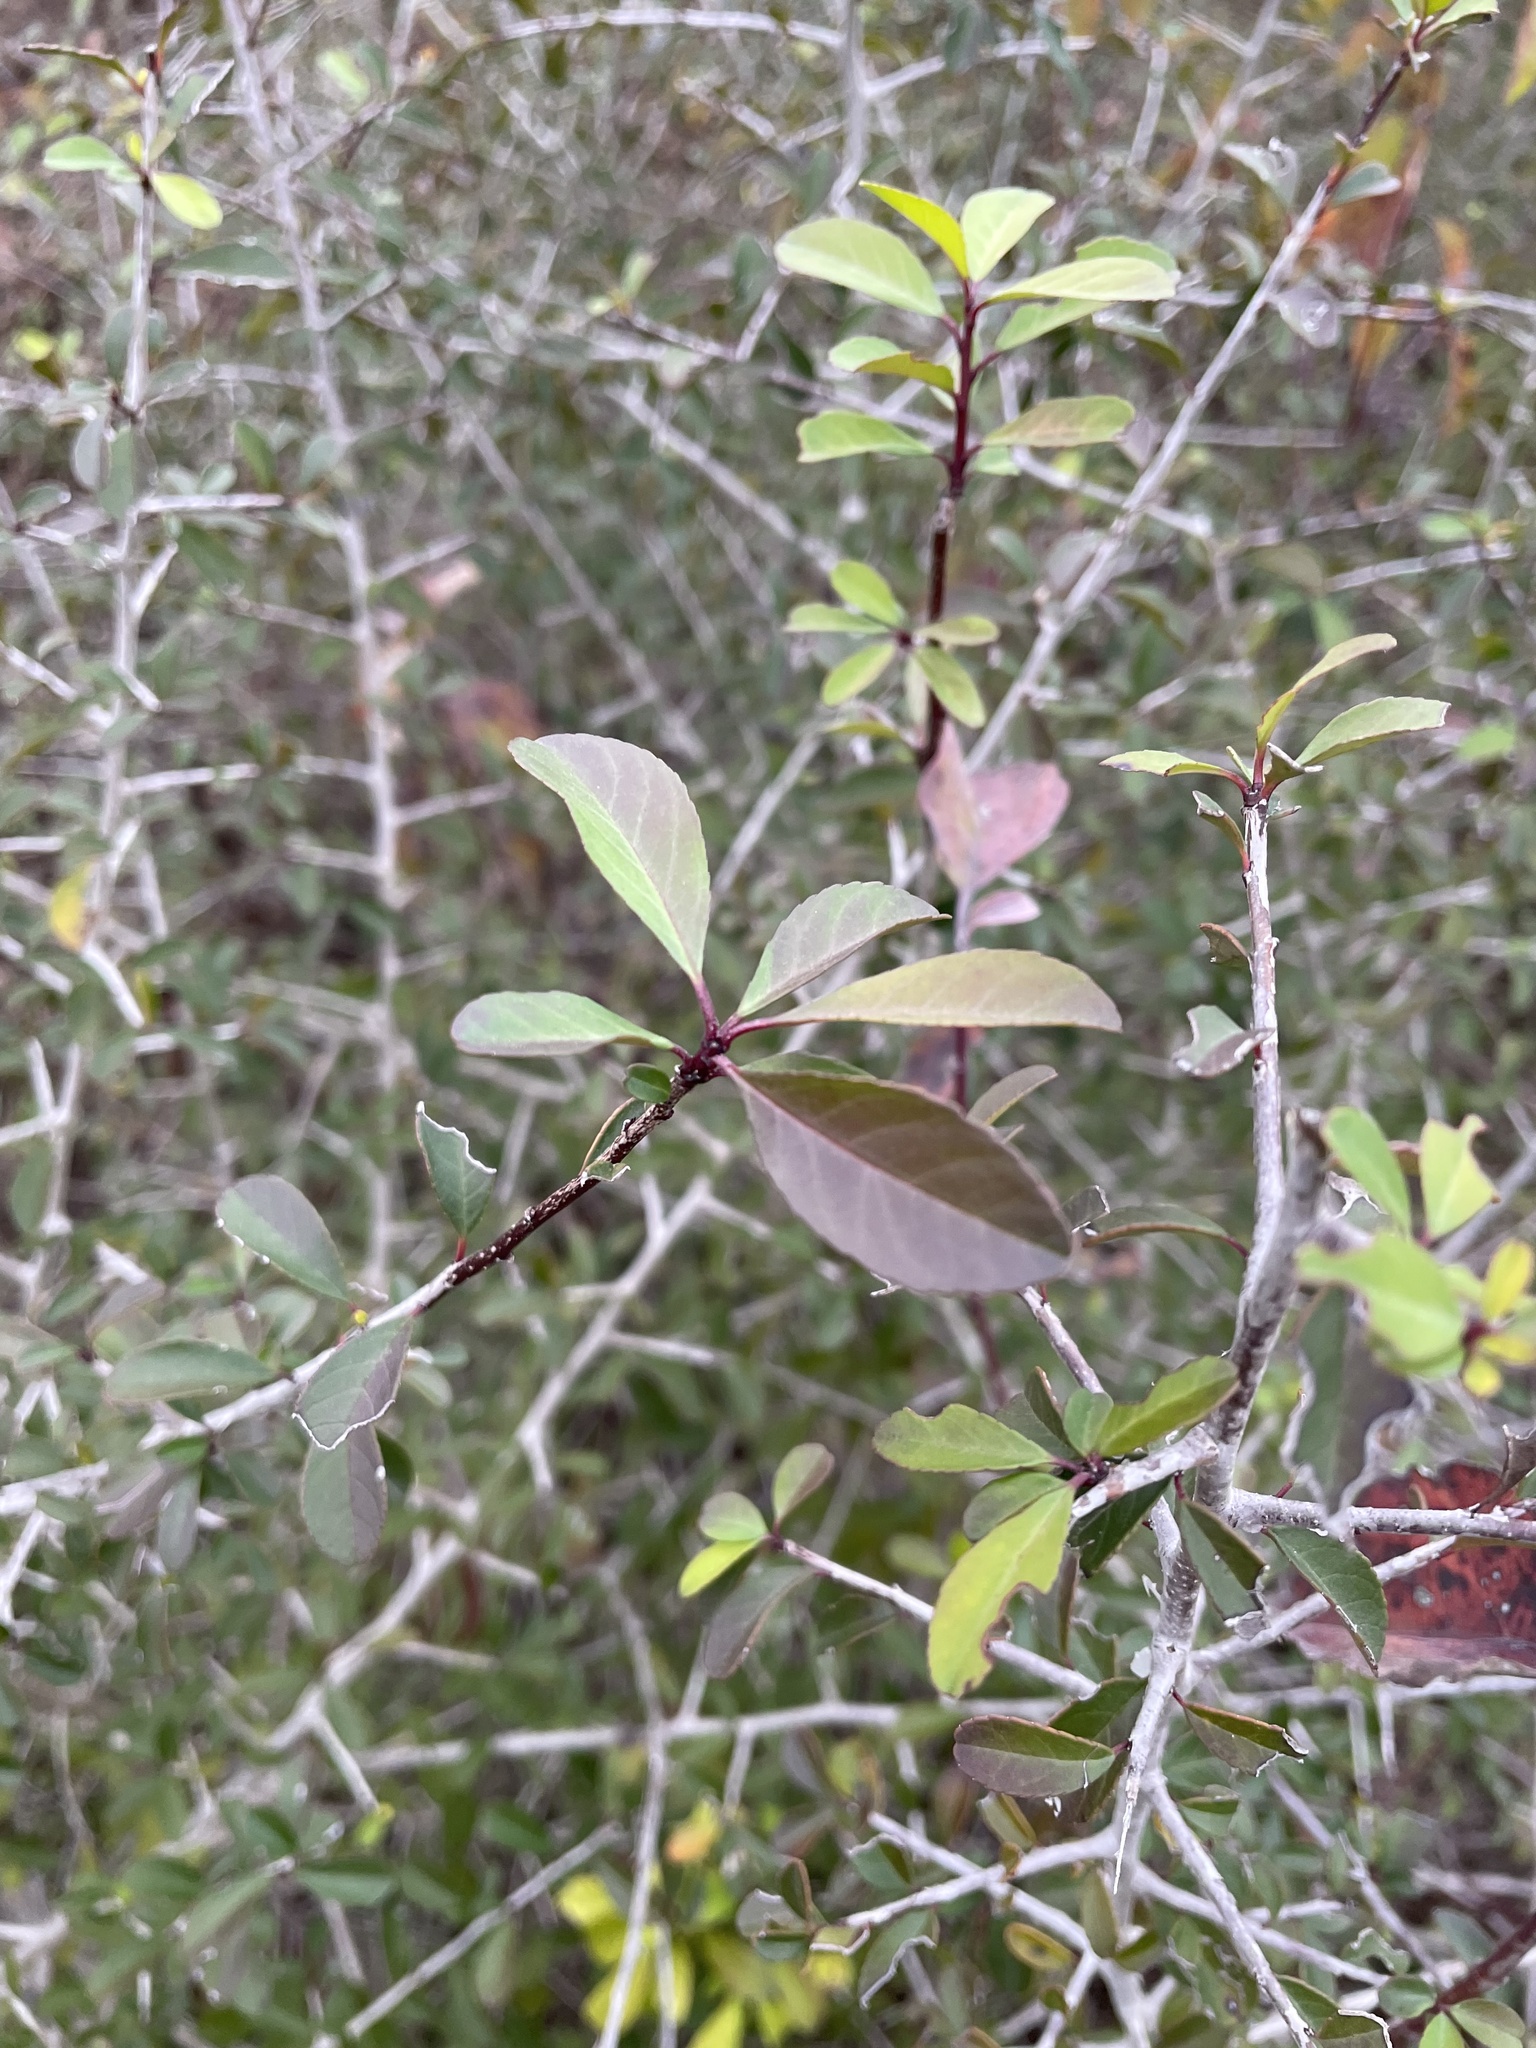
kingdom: Plantae
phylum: Tracheophyta
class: Magnoliopsida
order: Aquifoliales
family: Aquifoliaceae
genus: Ilex
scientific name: Ilex decidua
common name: Possum-haw
